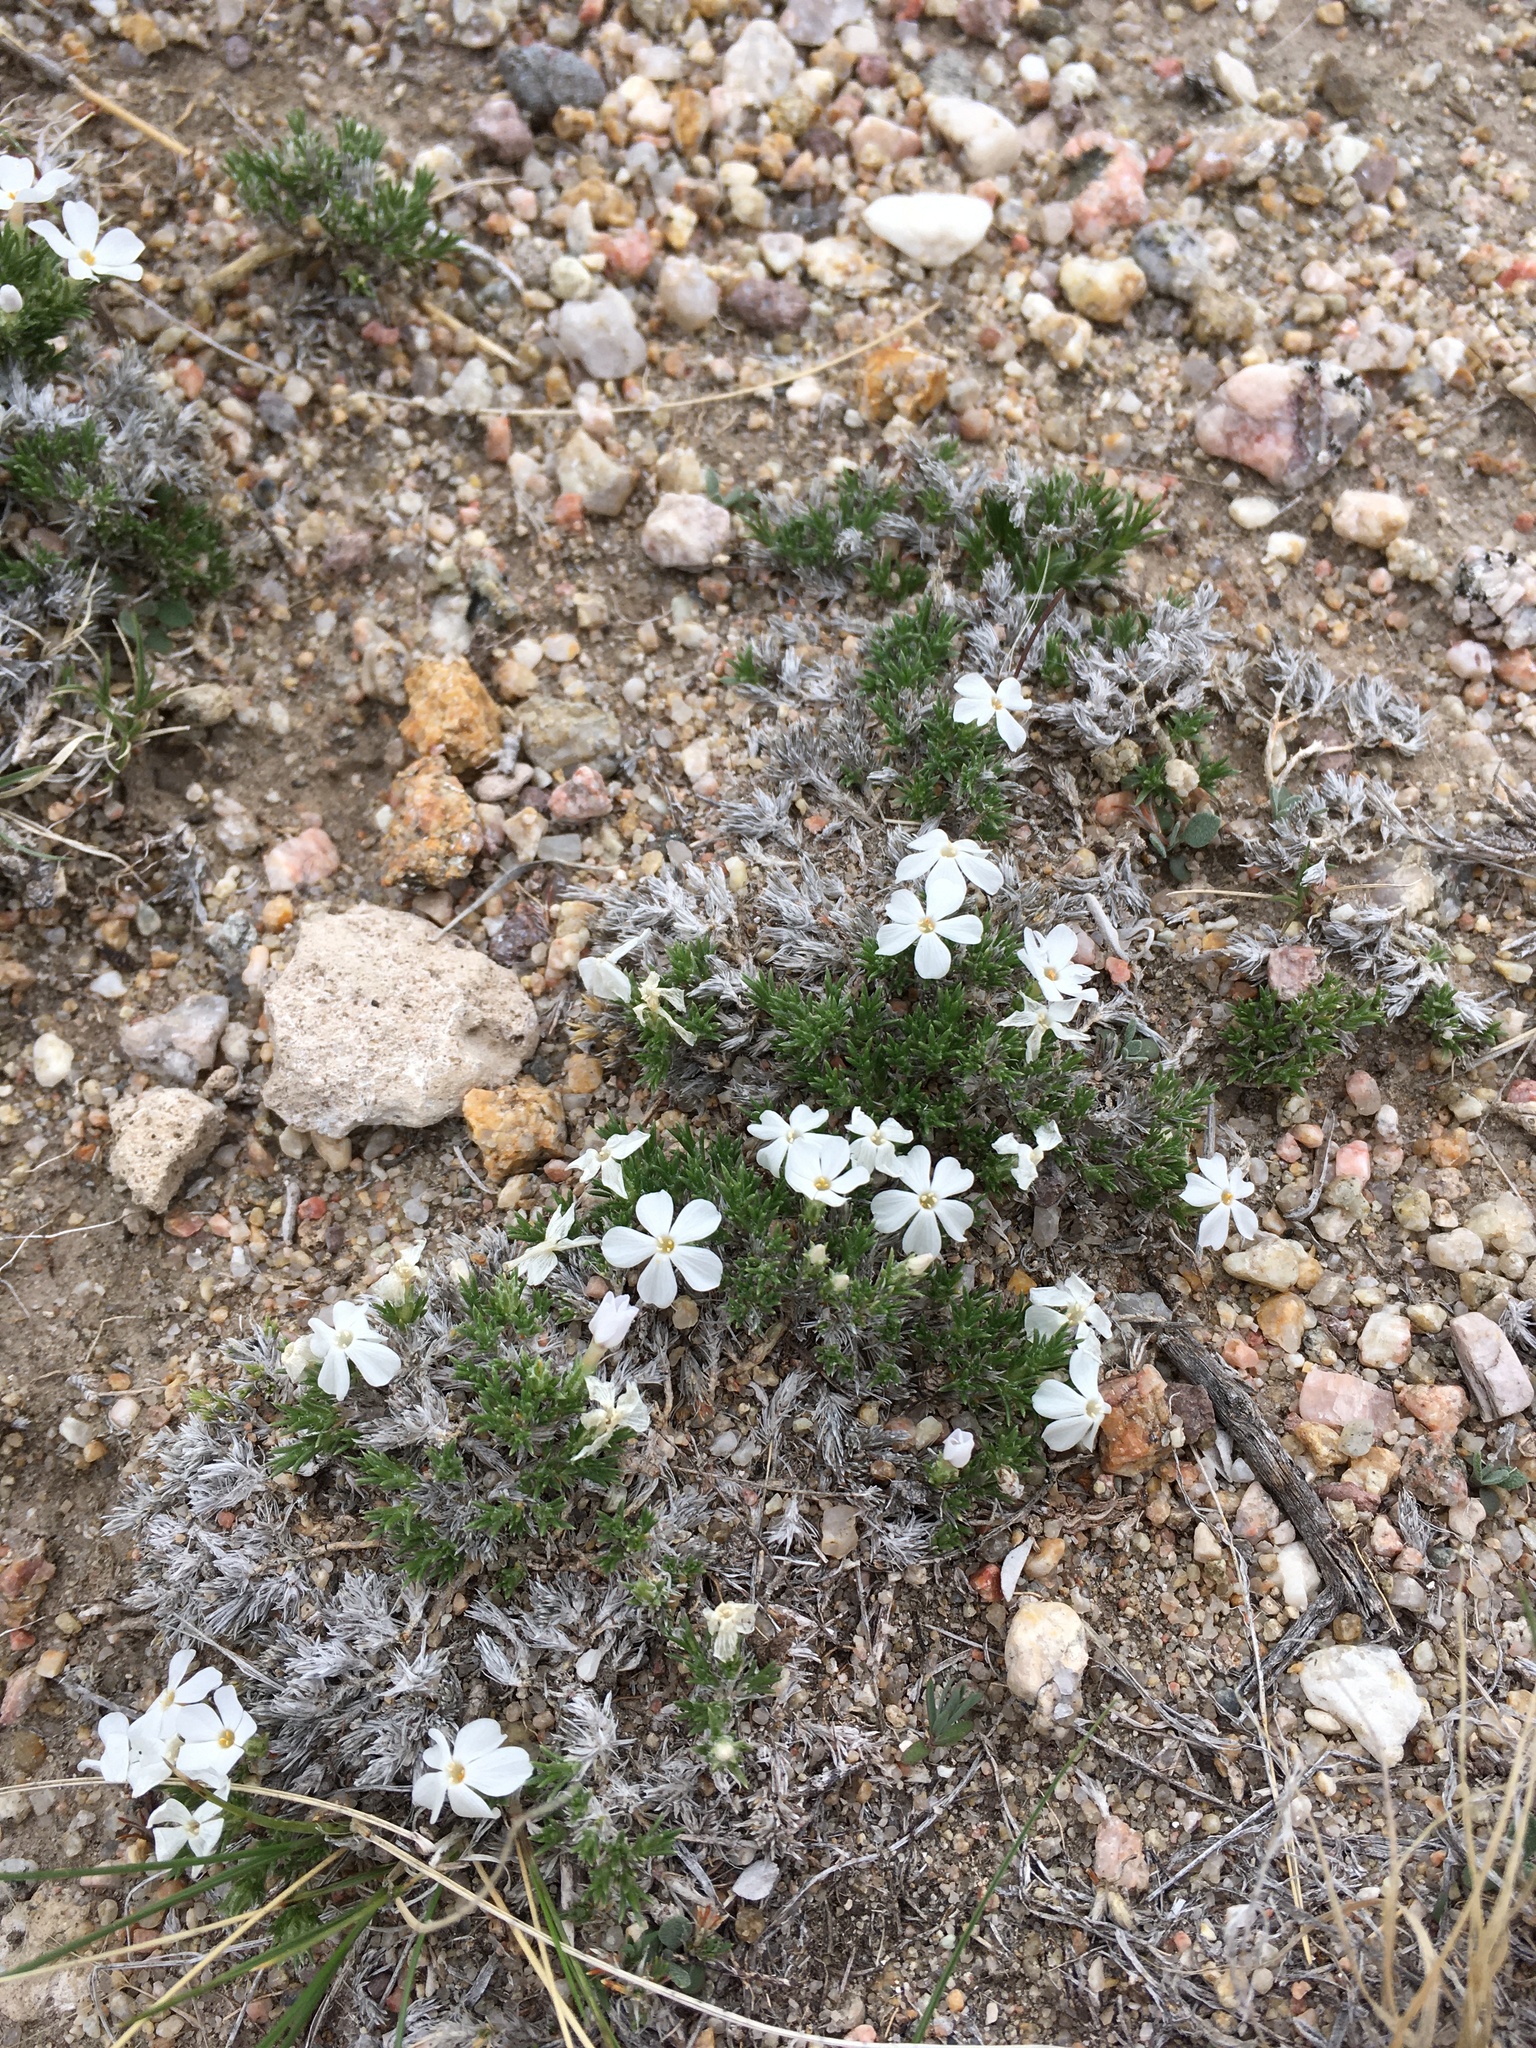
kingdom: Plantae
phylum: Tracheophyta
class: Magnoliopsida
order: Ericales
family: Polemoniaceae
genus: Phlox
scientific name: Phlox hoodii
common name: Moss phlox
